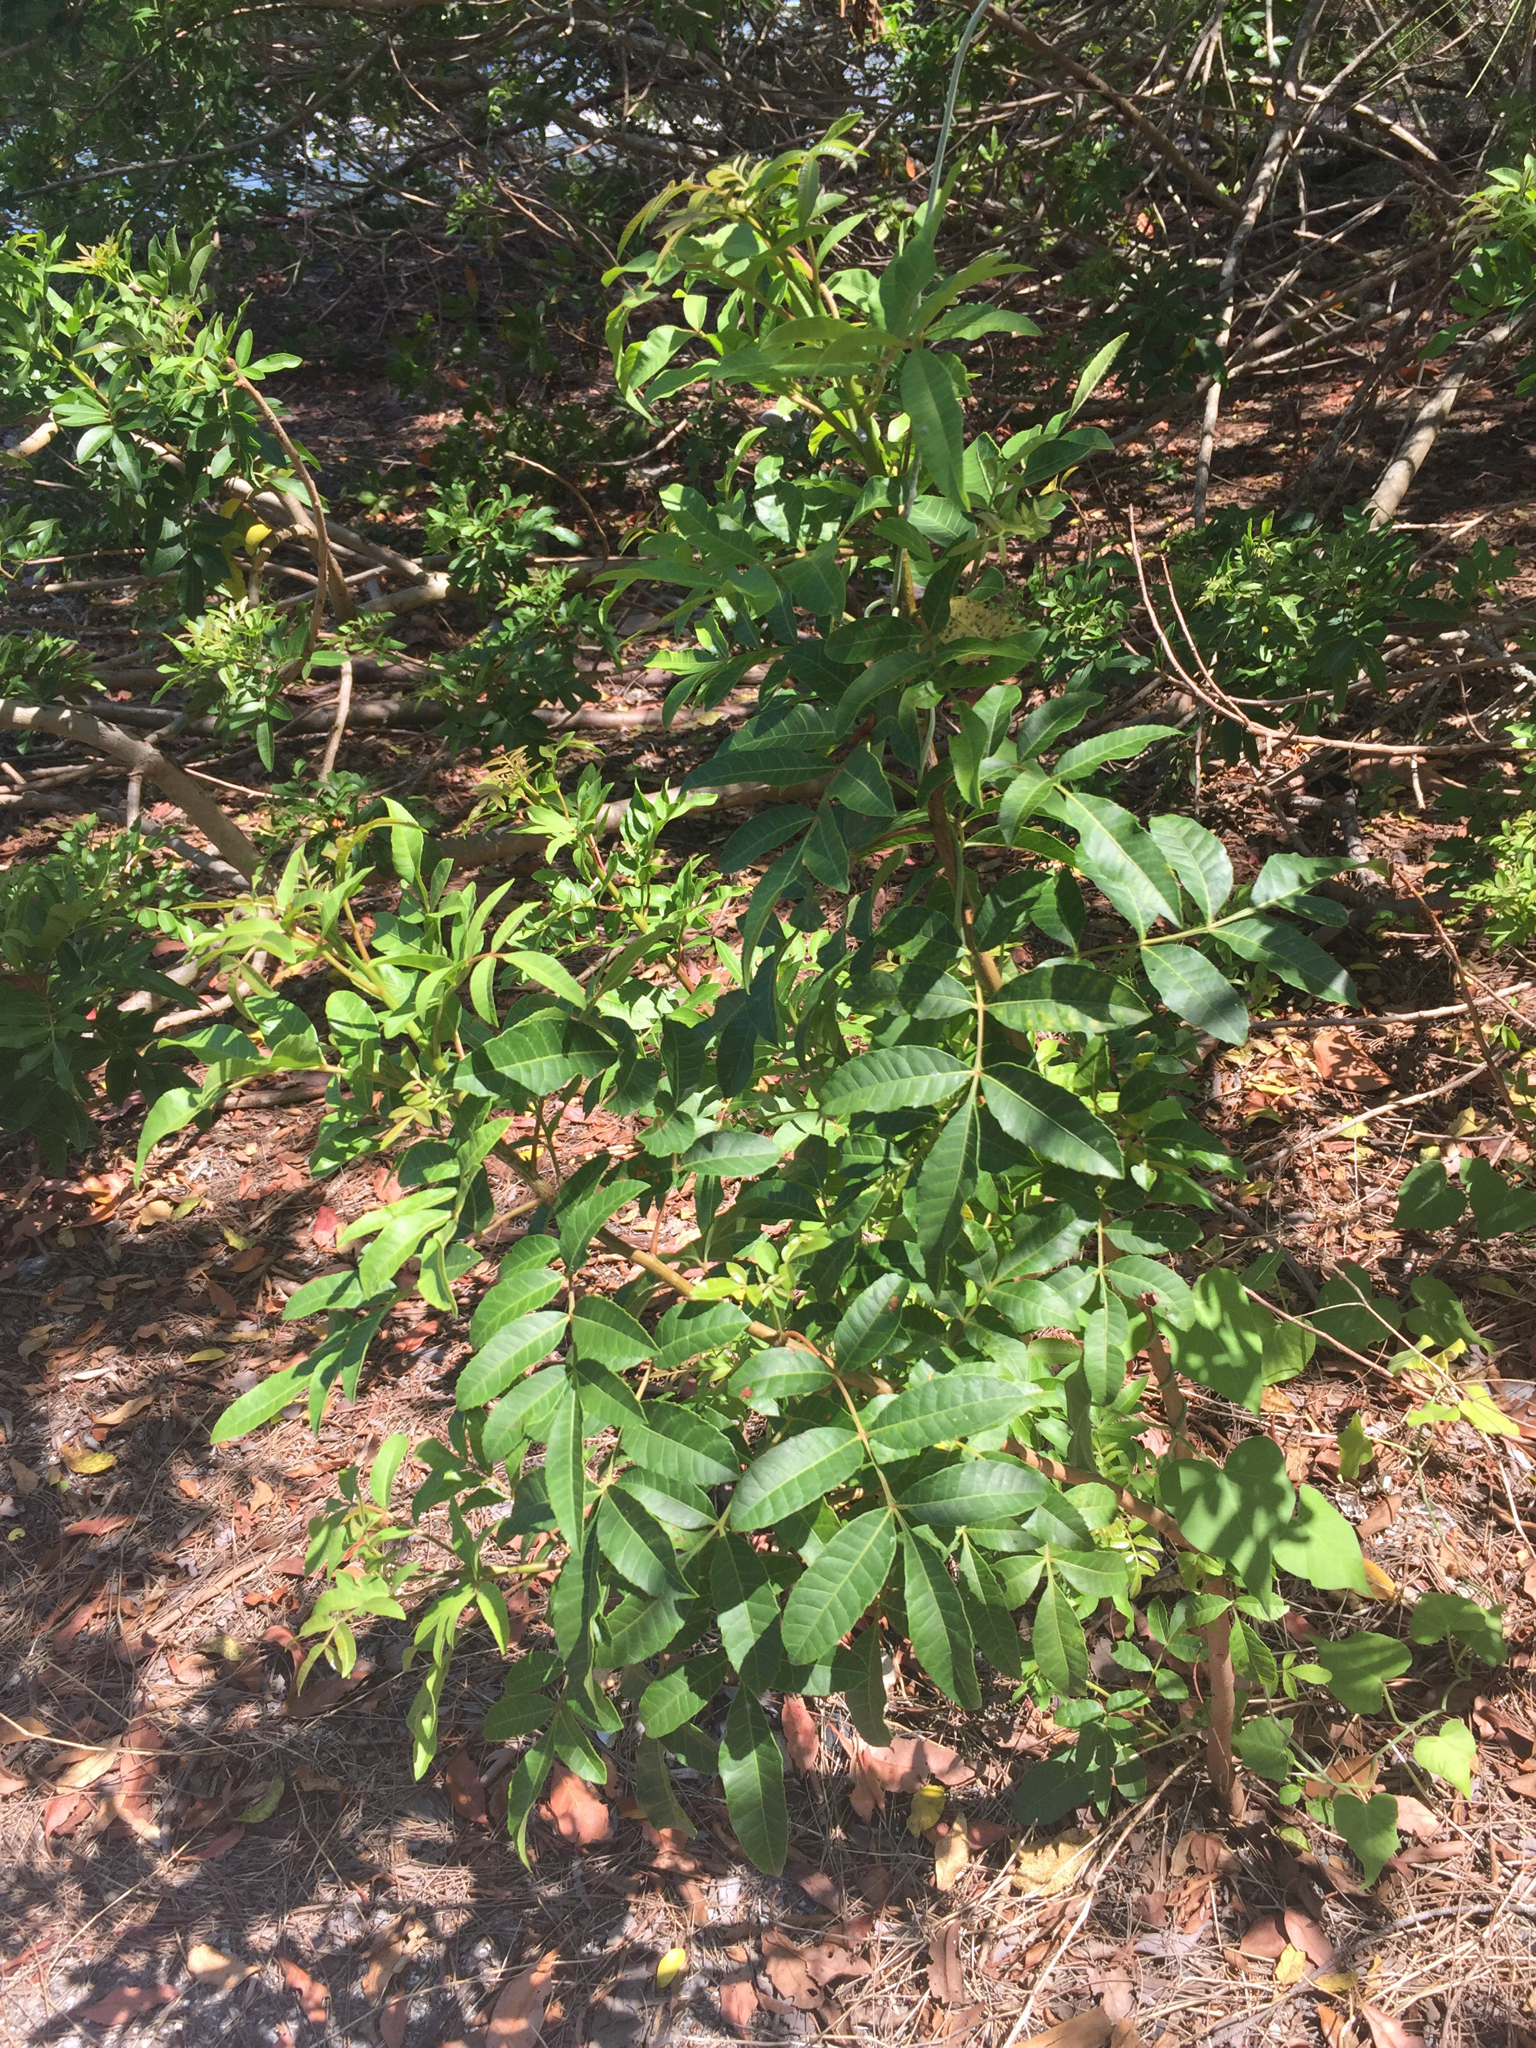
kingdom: Plantae
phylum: Tracheophyta
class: Magnoliopsida
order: Sapindales
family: Anacardiaceae
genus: Schinus
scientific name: Schinus terebinthifolia
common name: Brazilian peppertree
